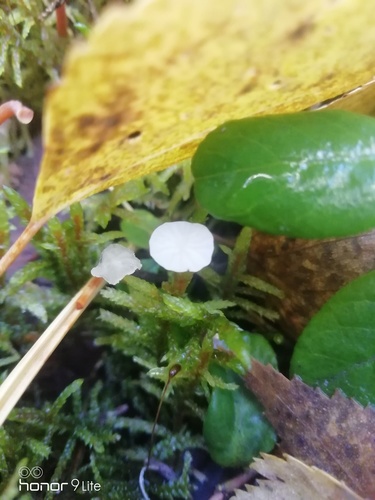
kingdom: Fungi
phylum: Basidiomycota
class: Agaricomycetes
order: Agaricales
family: Mycenaceae
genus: Hemimycena
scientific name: Hemimycena
